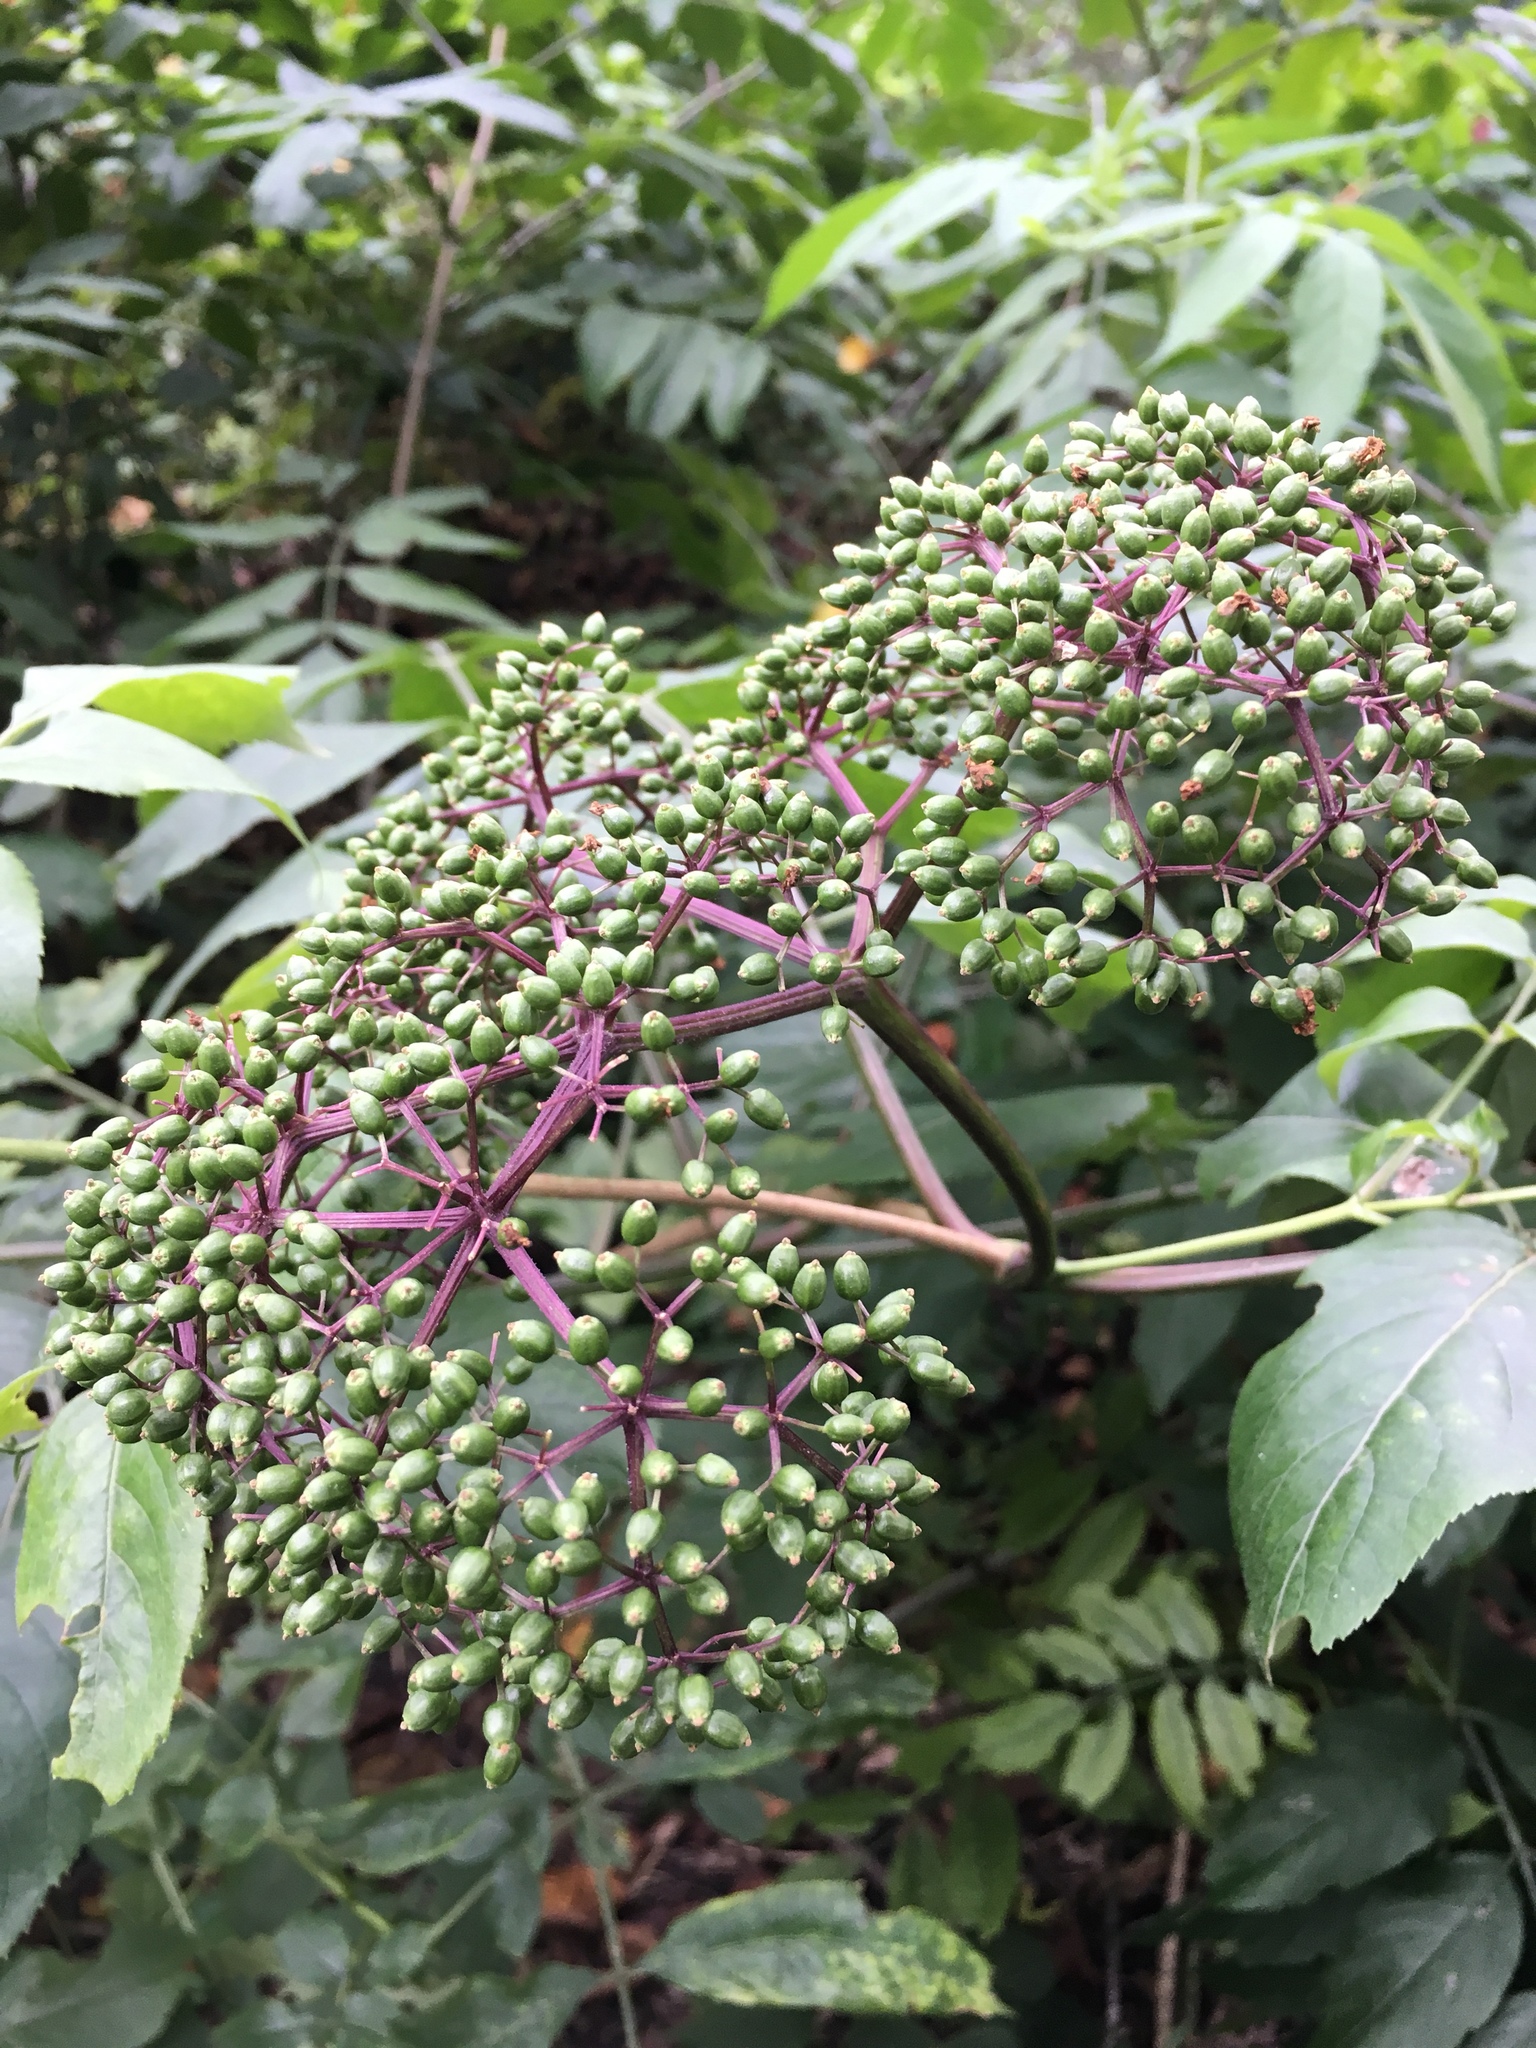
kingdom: Plantae
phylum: Tracheophyta
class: Magnoliopsida
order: Dipsacales
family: Viburnaceae
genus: Sambucus
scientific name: Sambucus canadensis
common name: American elder
